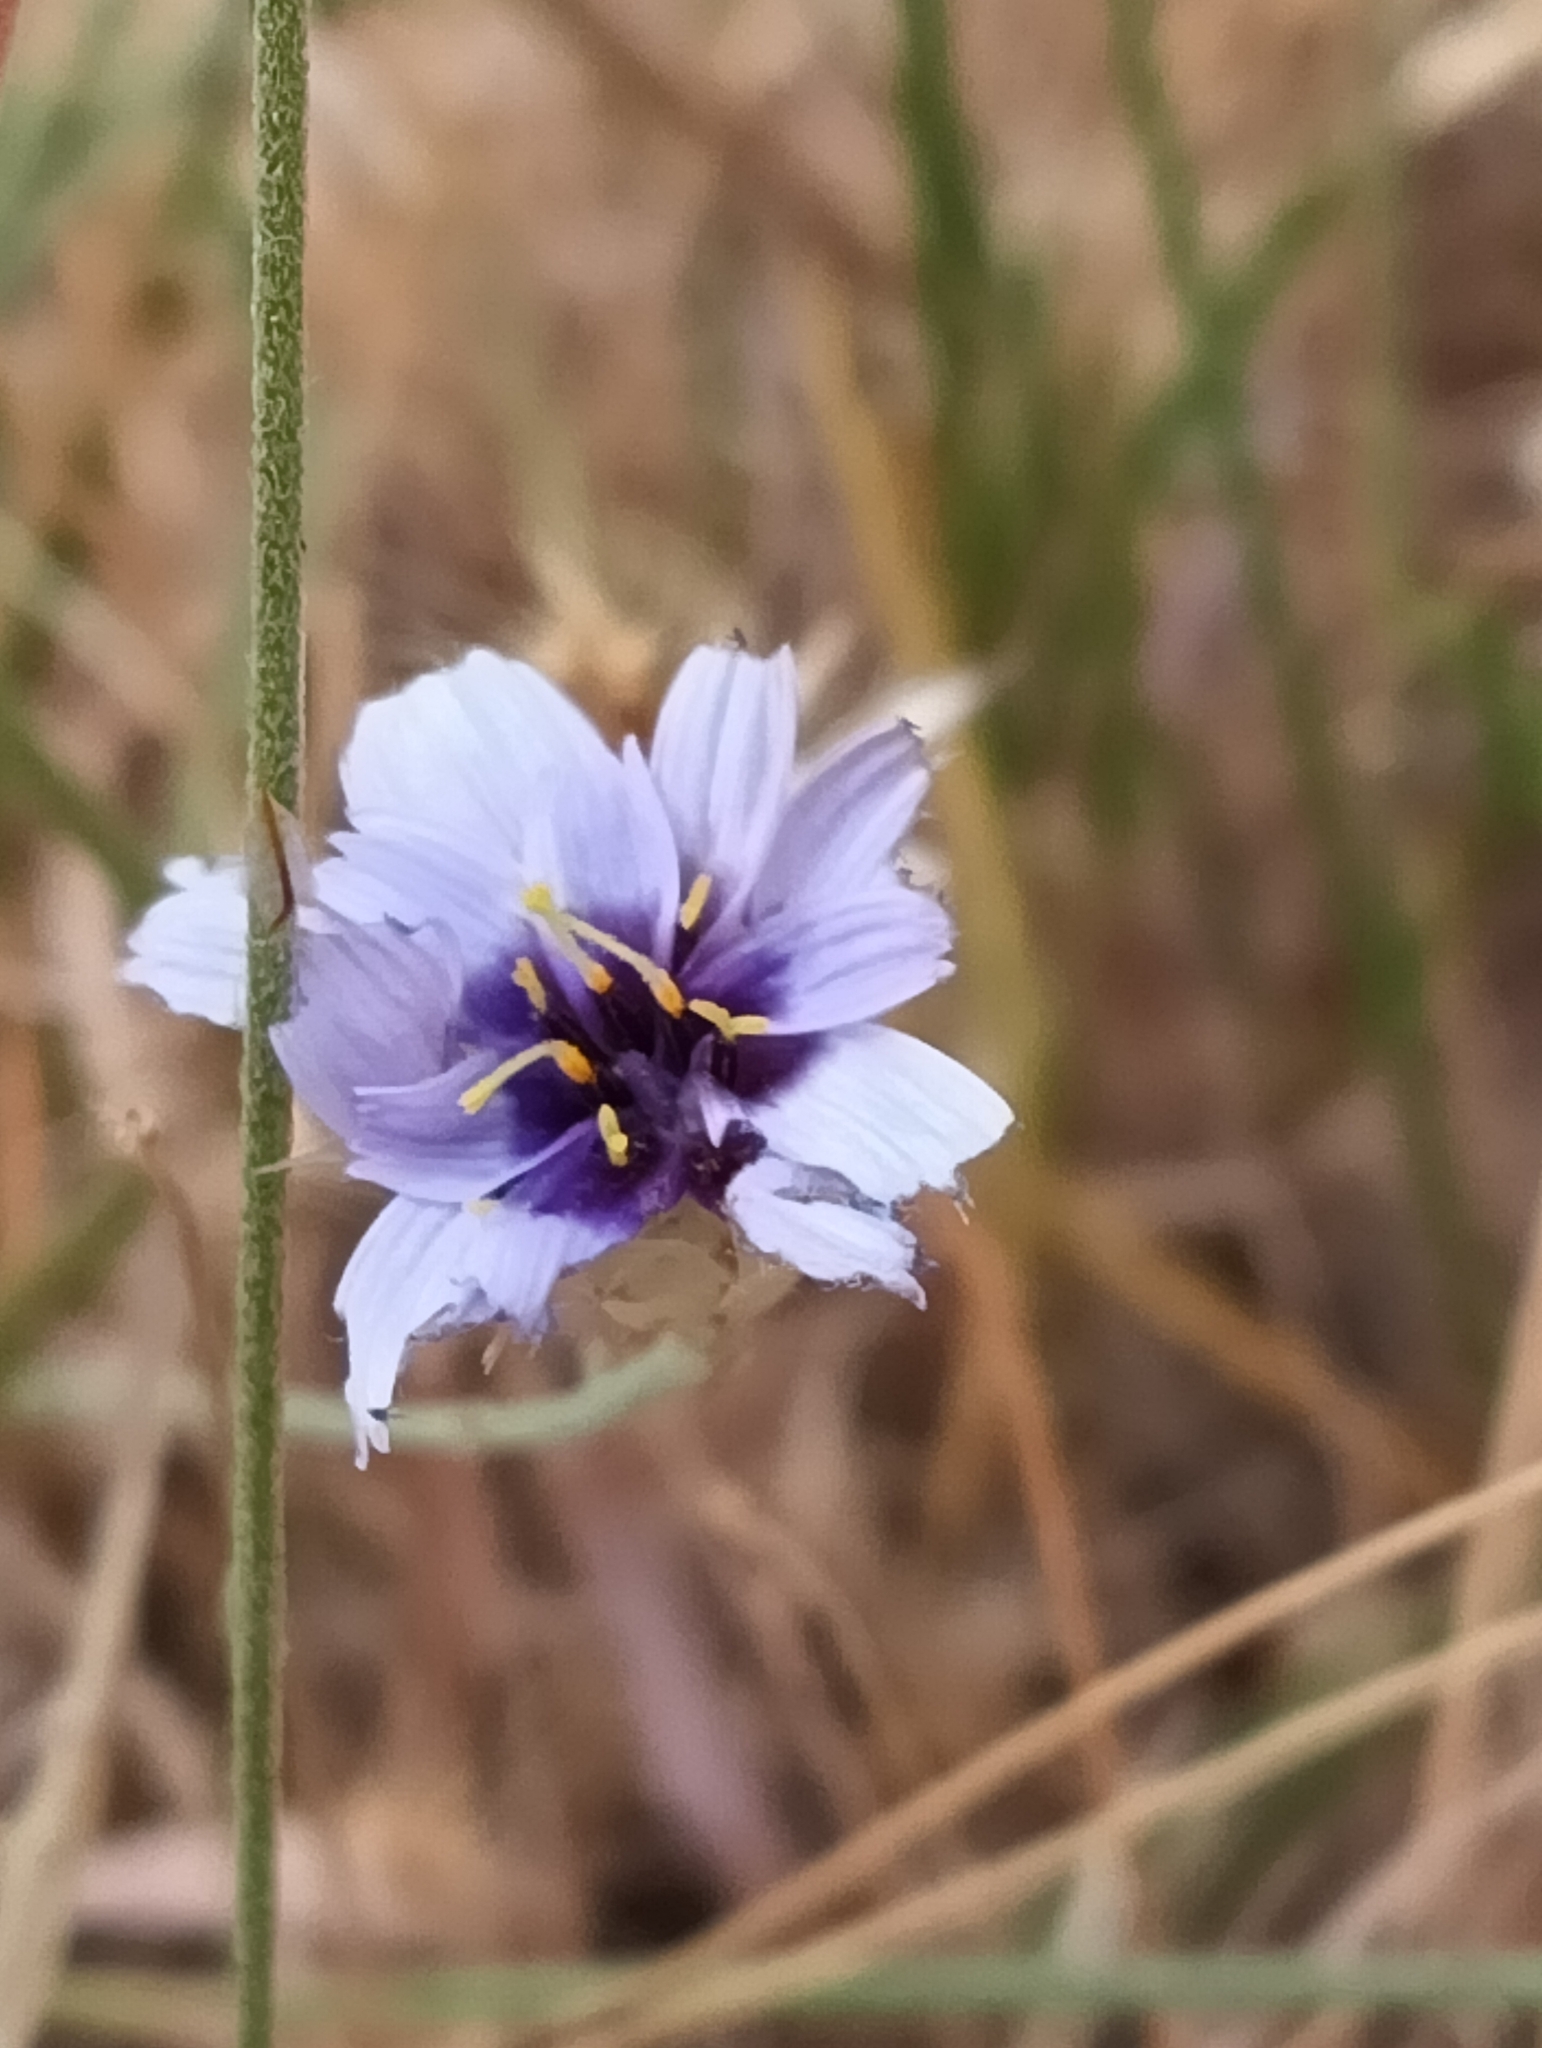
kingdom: Plantae
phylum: Tracheophyta
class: Magnoliopsida
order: Asterales
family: Asteraceae
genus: Catananche
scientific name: Catananche caerulea
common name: Blue cupidone
